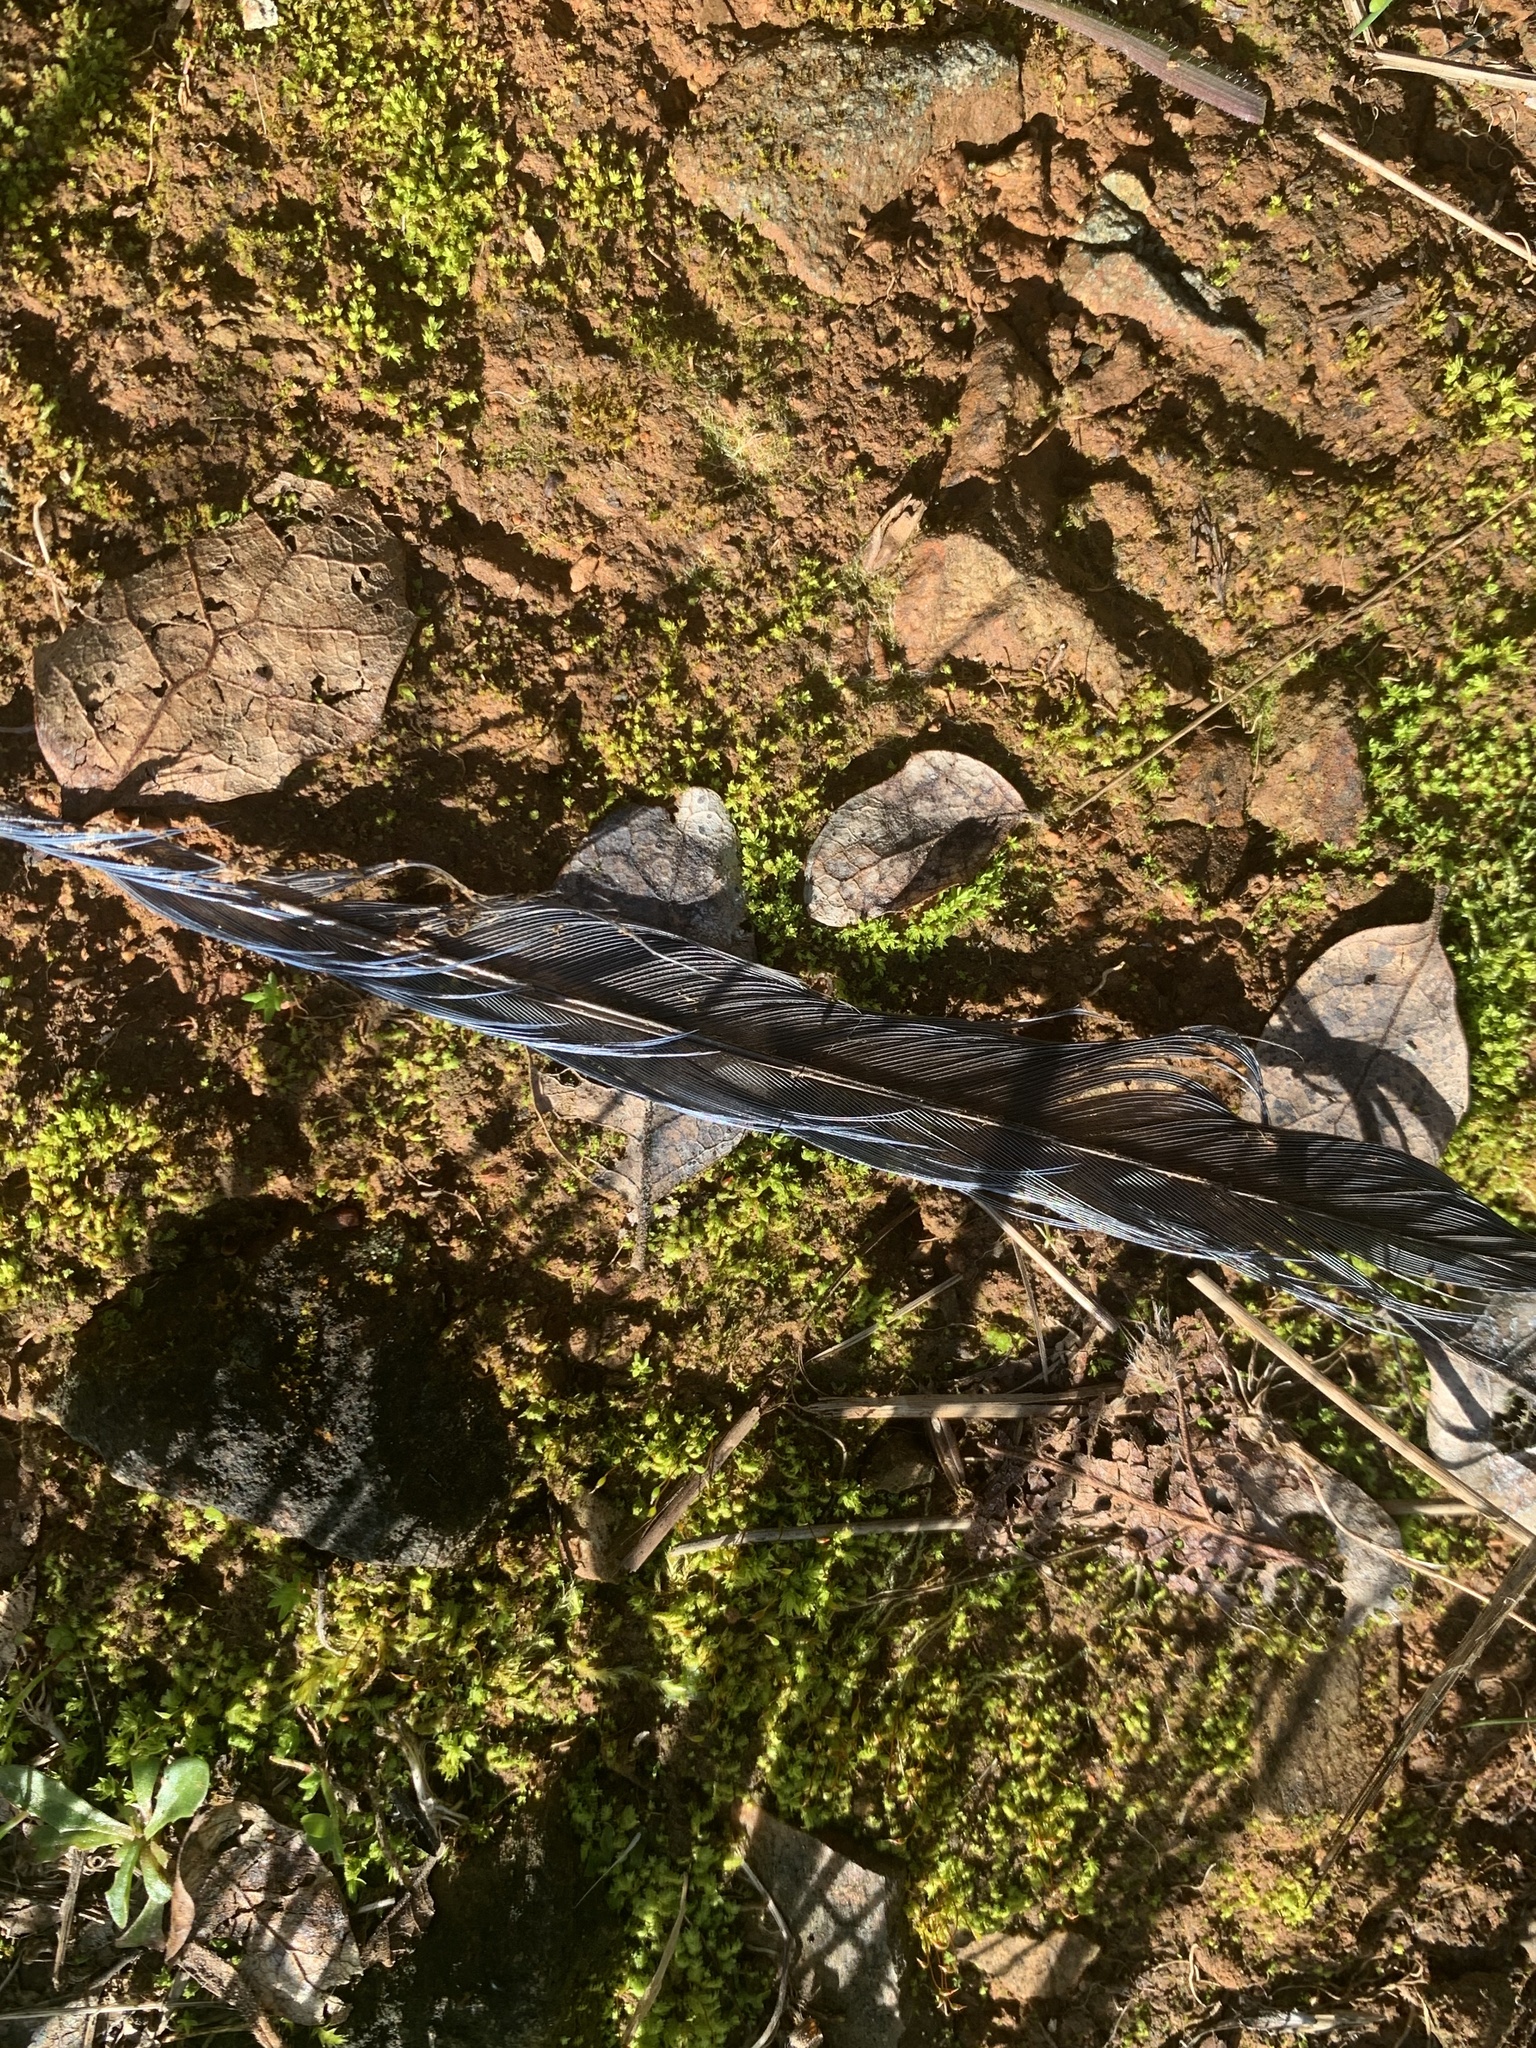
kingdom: Animalia
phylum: Chordata
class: Aves
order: Passeriformes
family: Corvidae
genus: Aphelocoma
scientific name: Aphelocoma californica
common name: California scrub-jay
